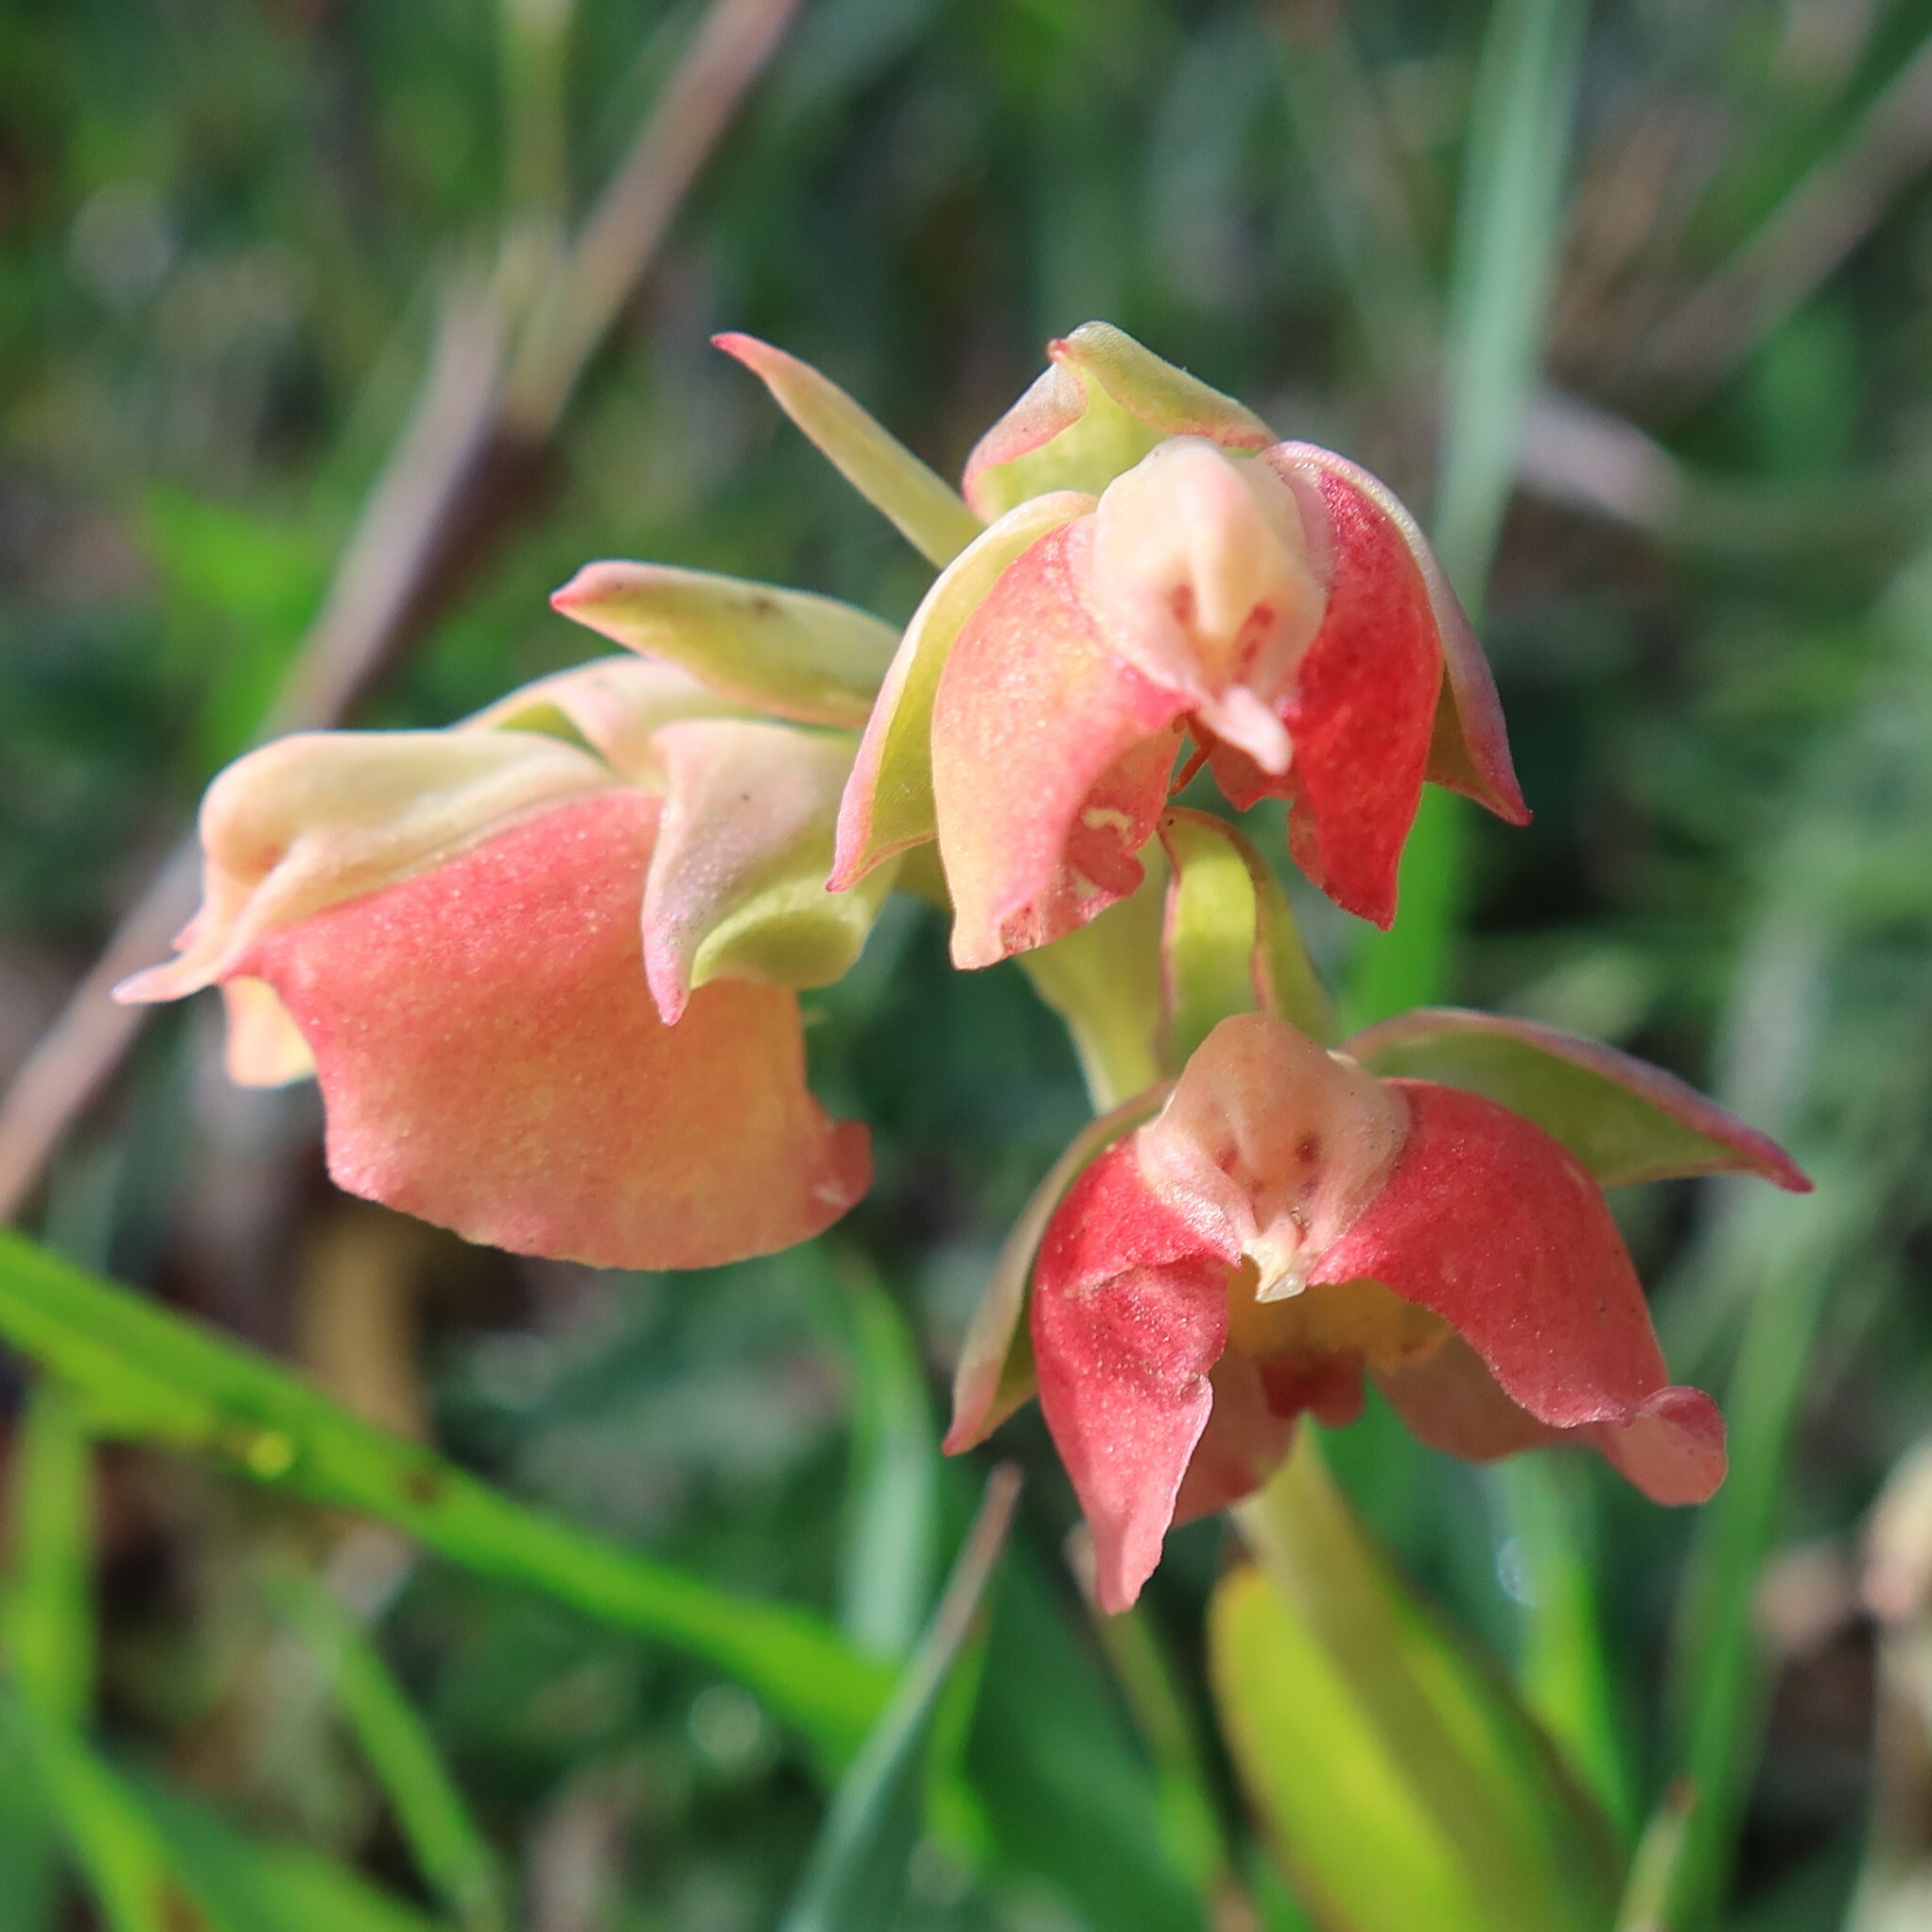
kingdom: Plantae
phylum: Tracheophyta
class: Liliopsida
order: Asparagales
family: Orchidaceae
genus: Pterygodium
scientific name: Pterygodium catholicum
